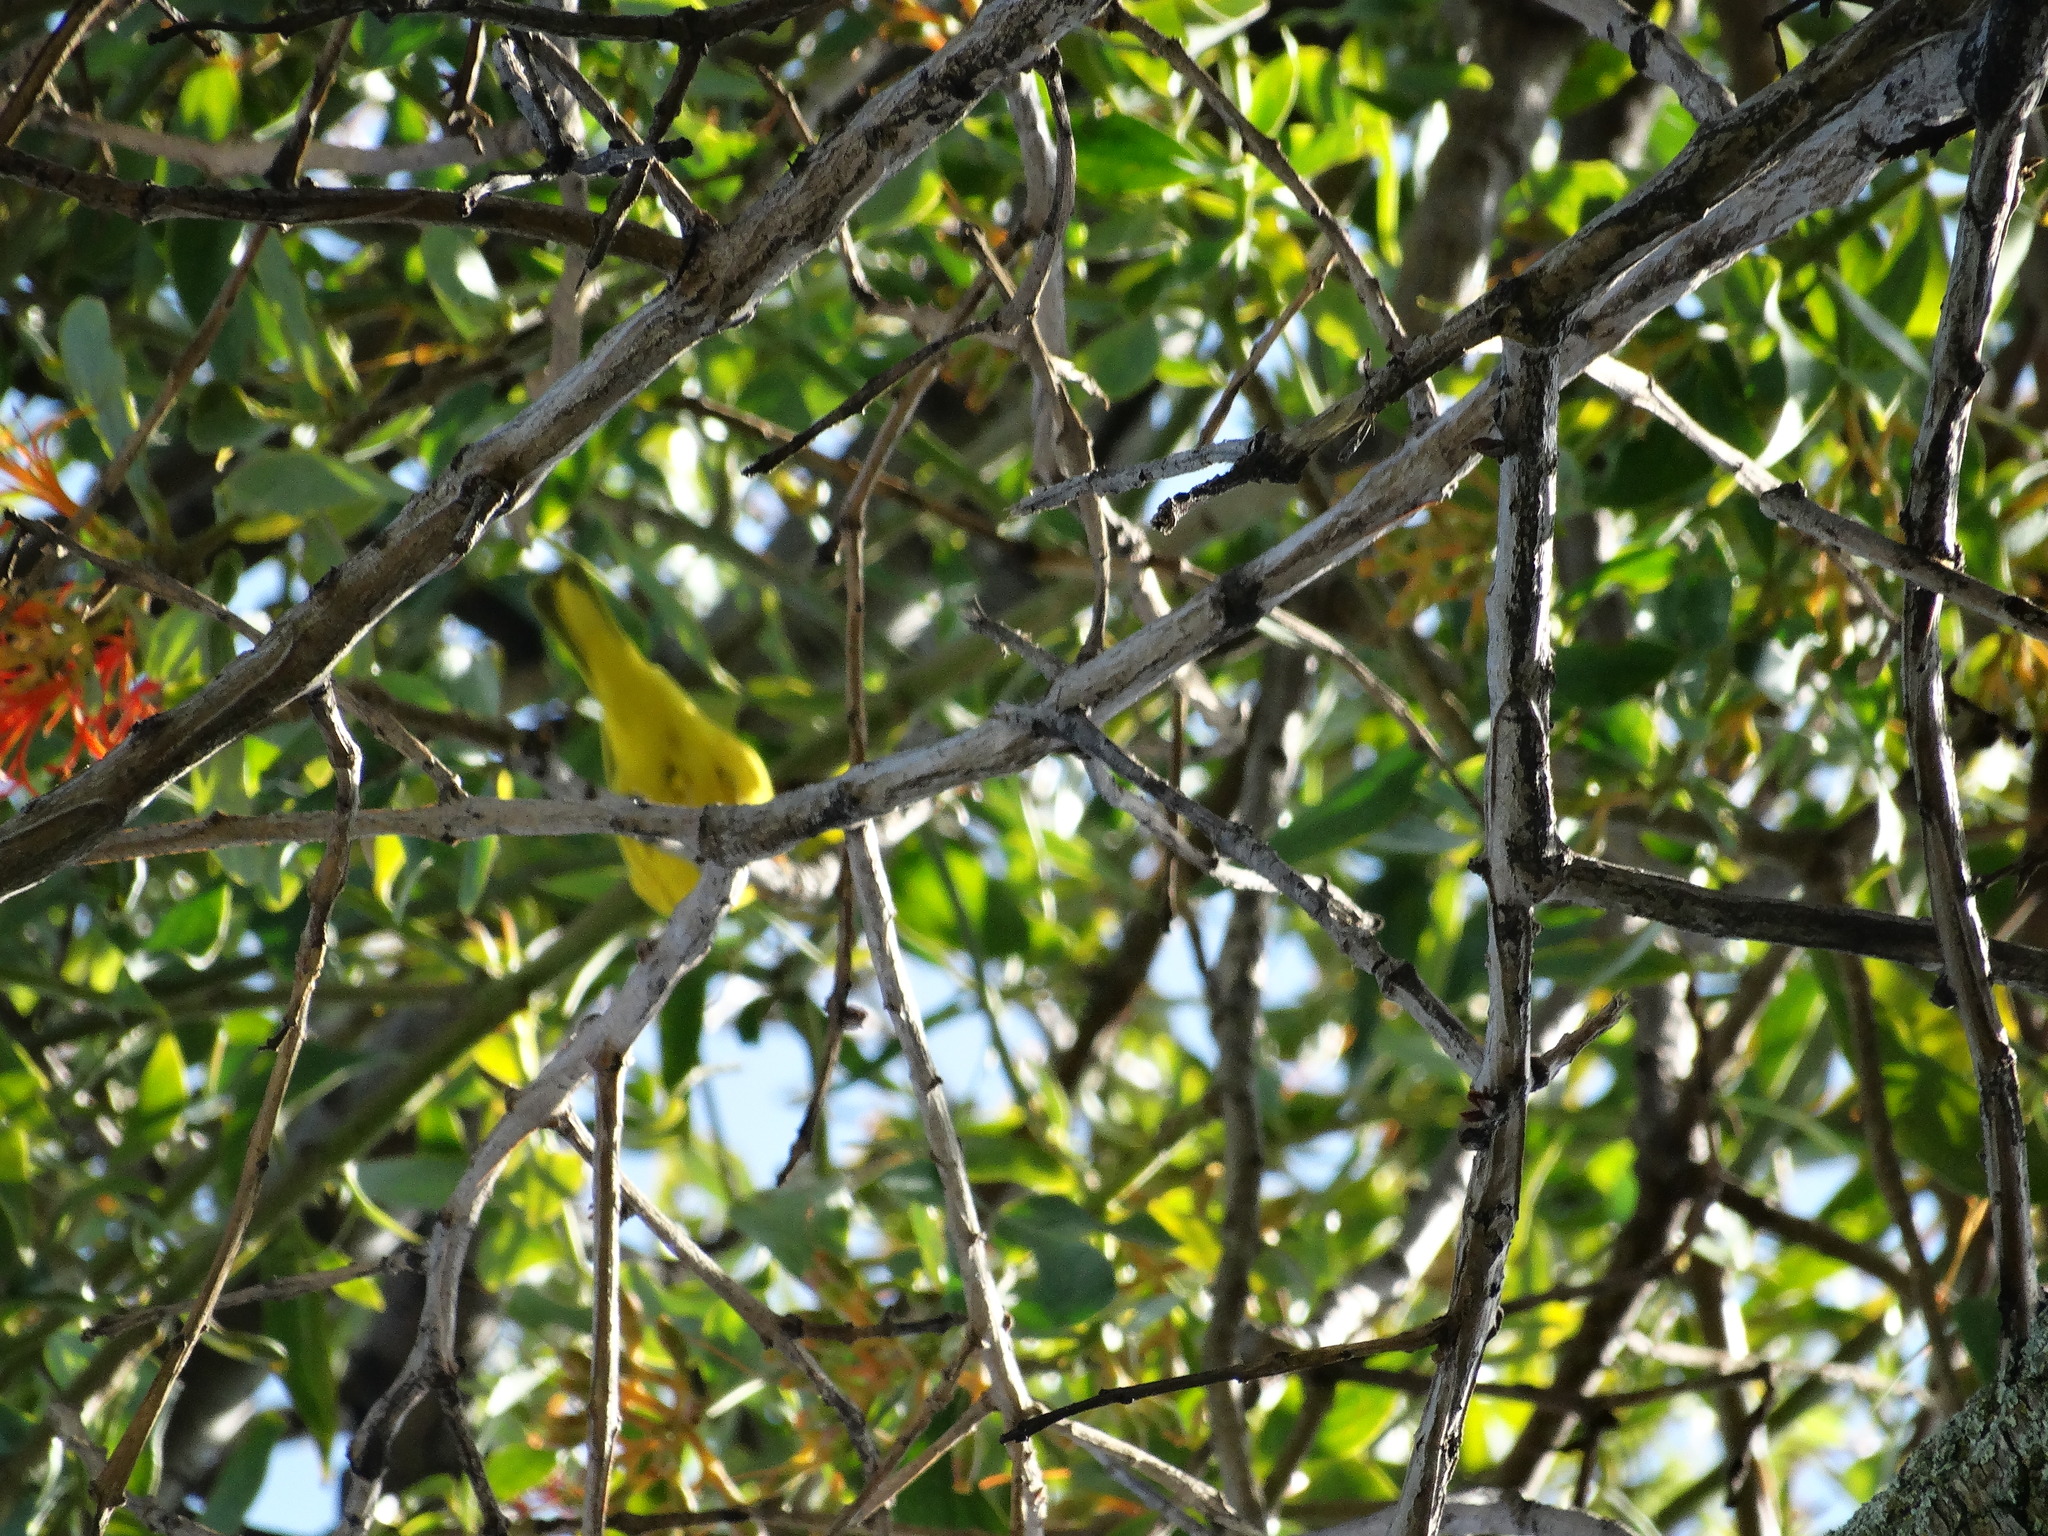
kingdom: Animalia
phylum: Chordata
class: Aves
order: Passeriformes
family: Parulidae
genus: Setophaga
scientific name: Setophaga petechia
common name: Yellow warbler
